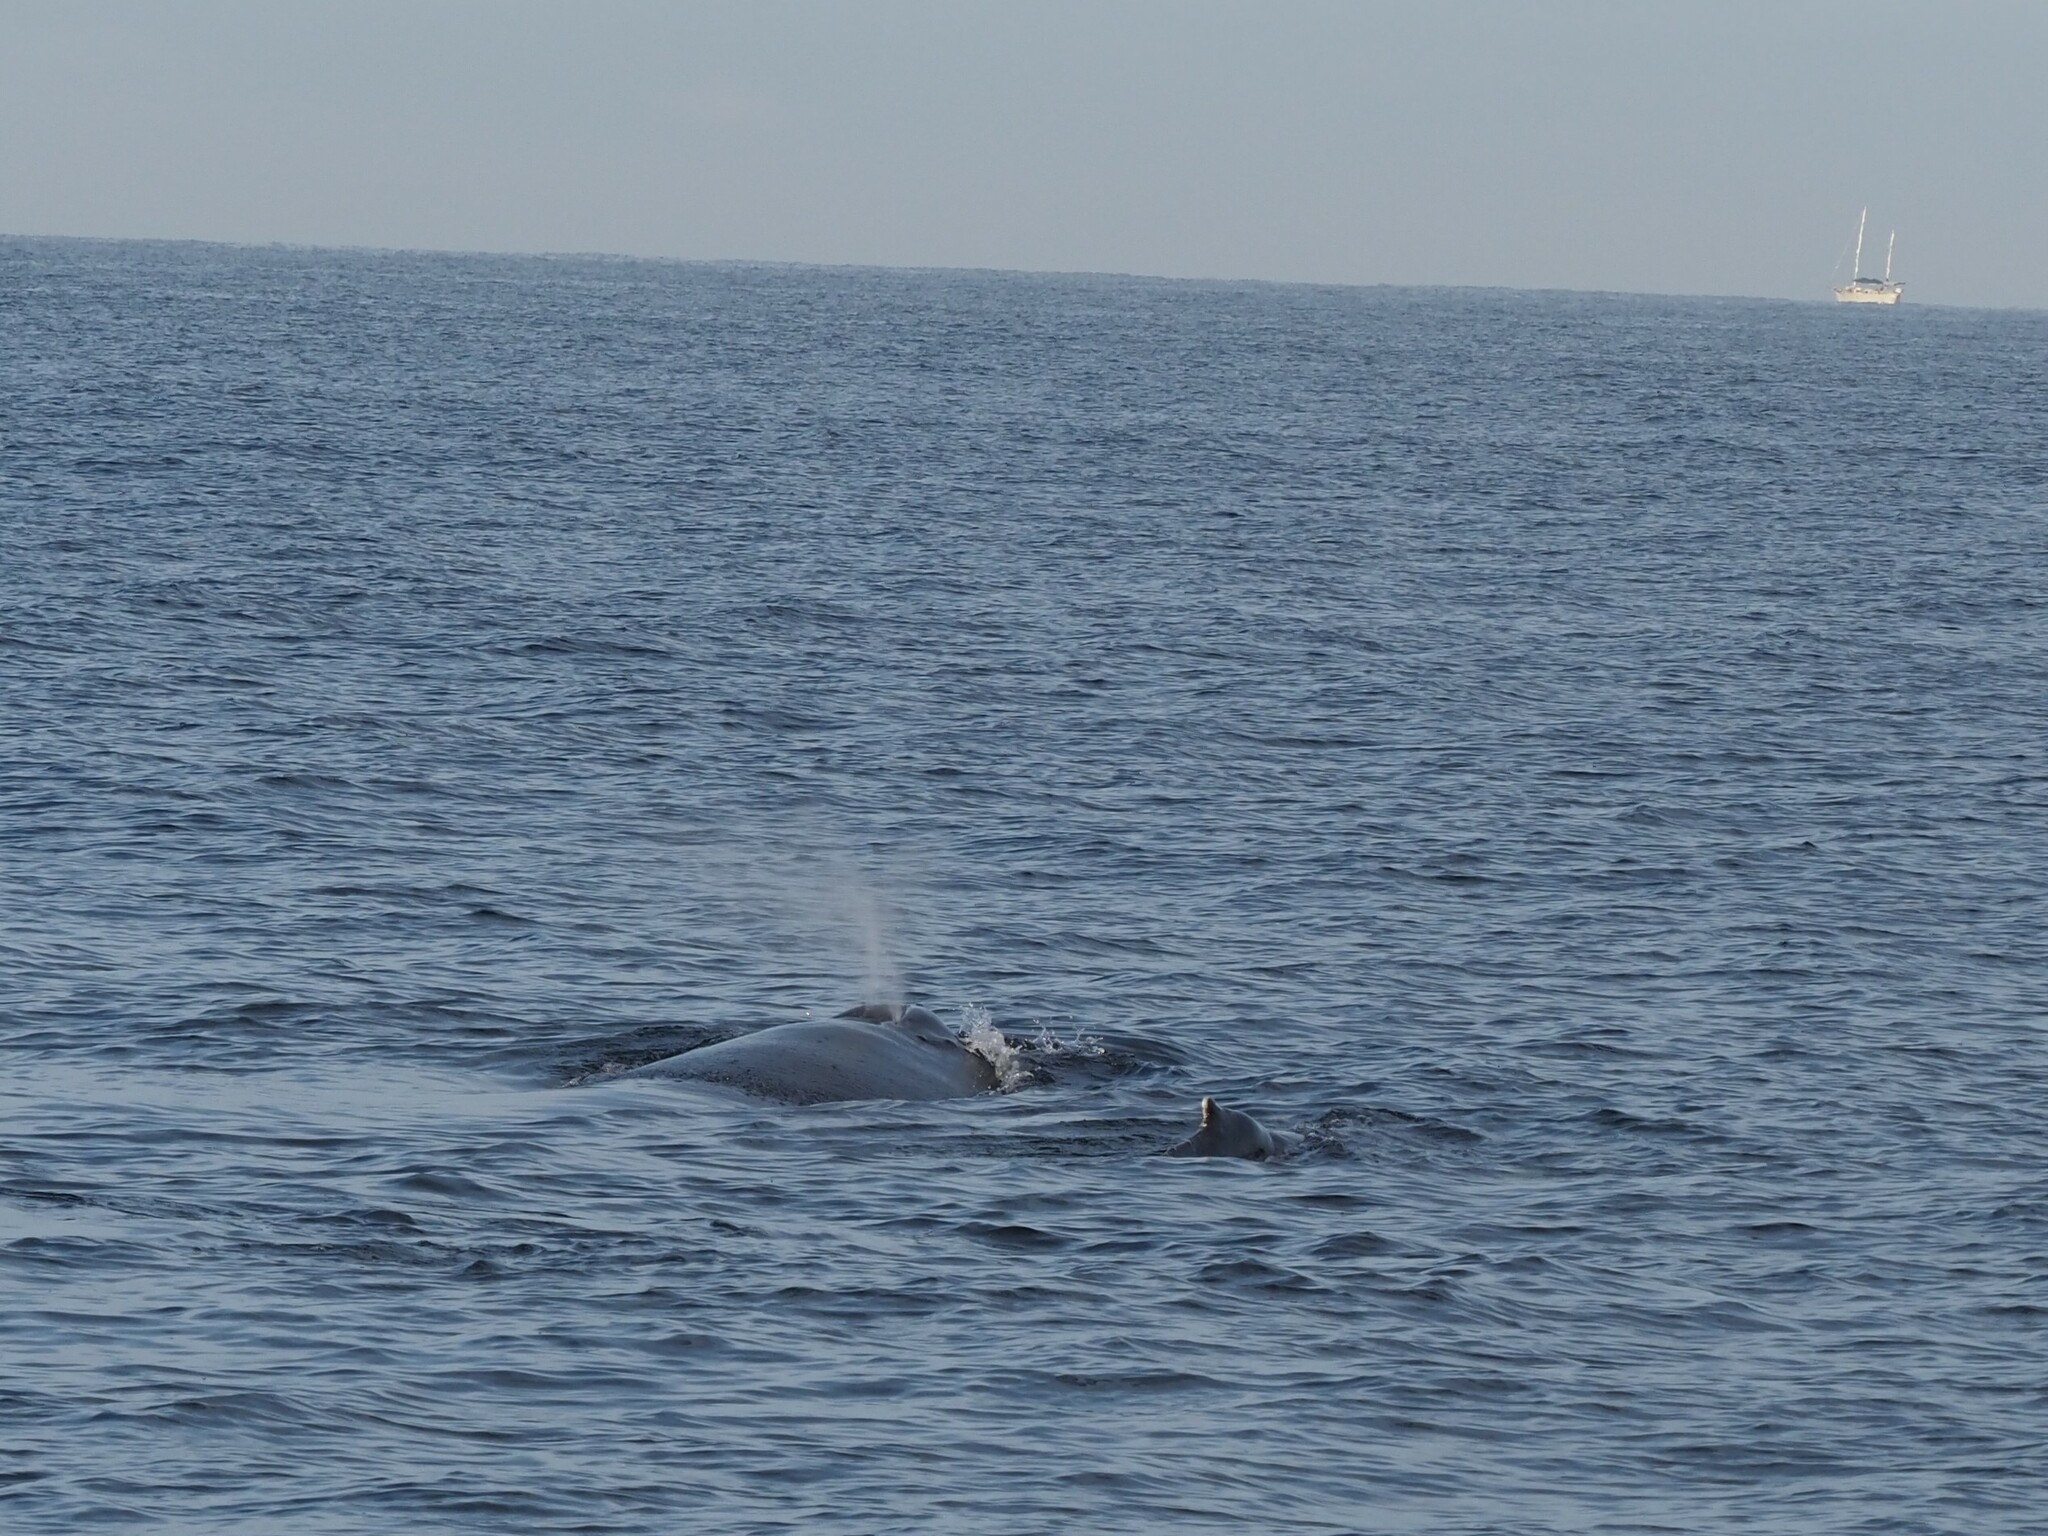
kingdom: Animalia
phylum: Chordata
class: Mammalia
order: Cetacea
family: Balaenopteridae
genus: Megaptera
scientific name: Megaptera novaeangliae
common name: Humpback whale
